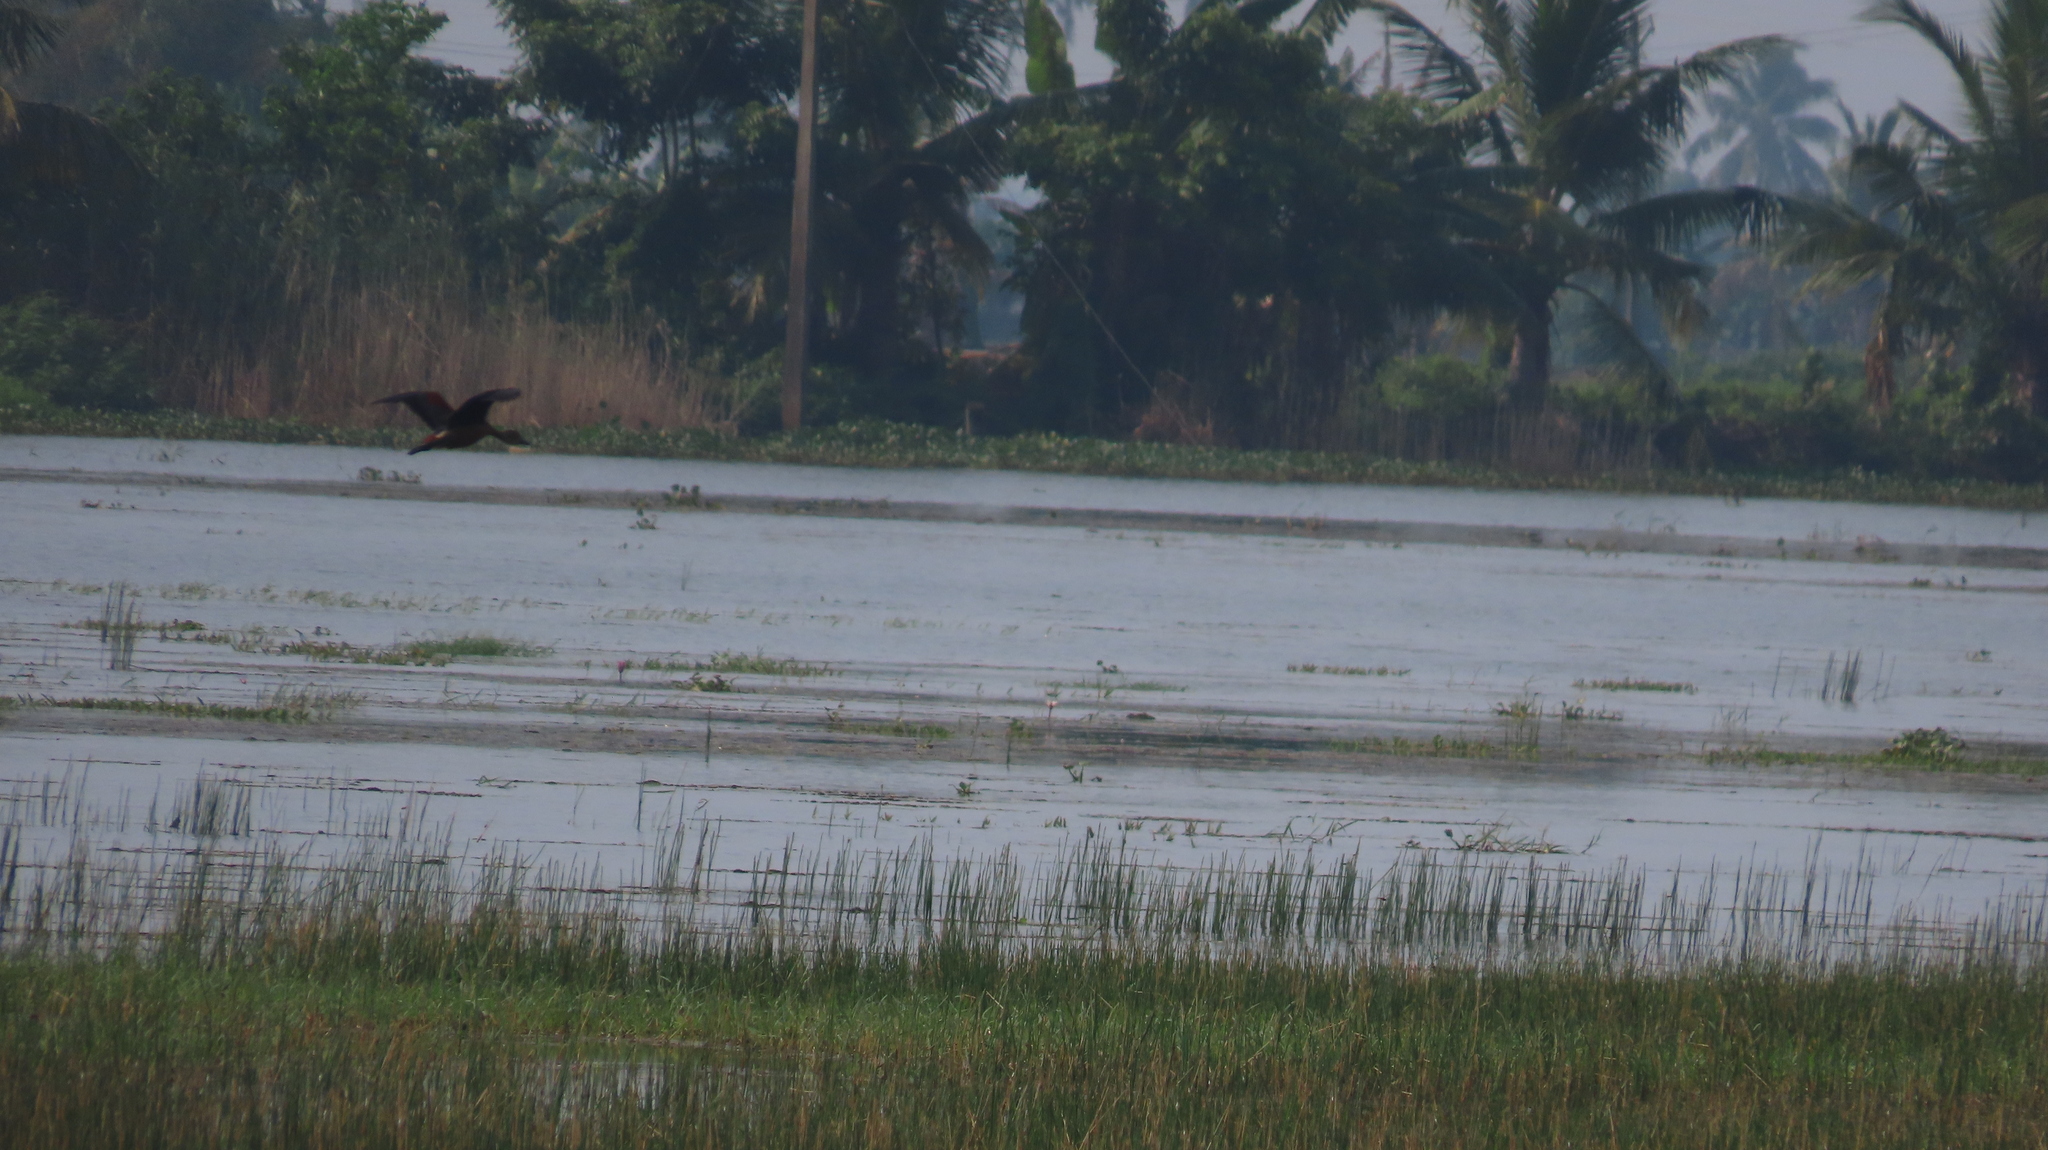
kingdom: Animalia
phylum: Chordata
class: Aves
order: Anseriformes
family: Anatidae
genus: Dendrocygna
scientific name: Dendrocygna javanica
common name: Lesser whistling-duck
